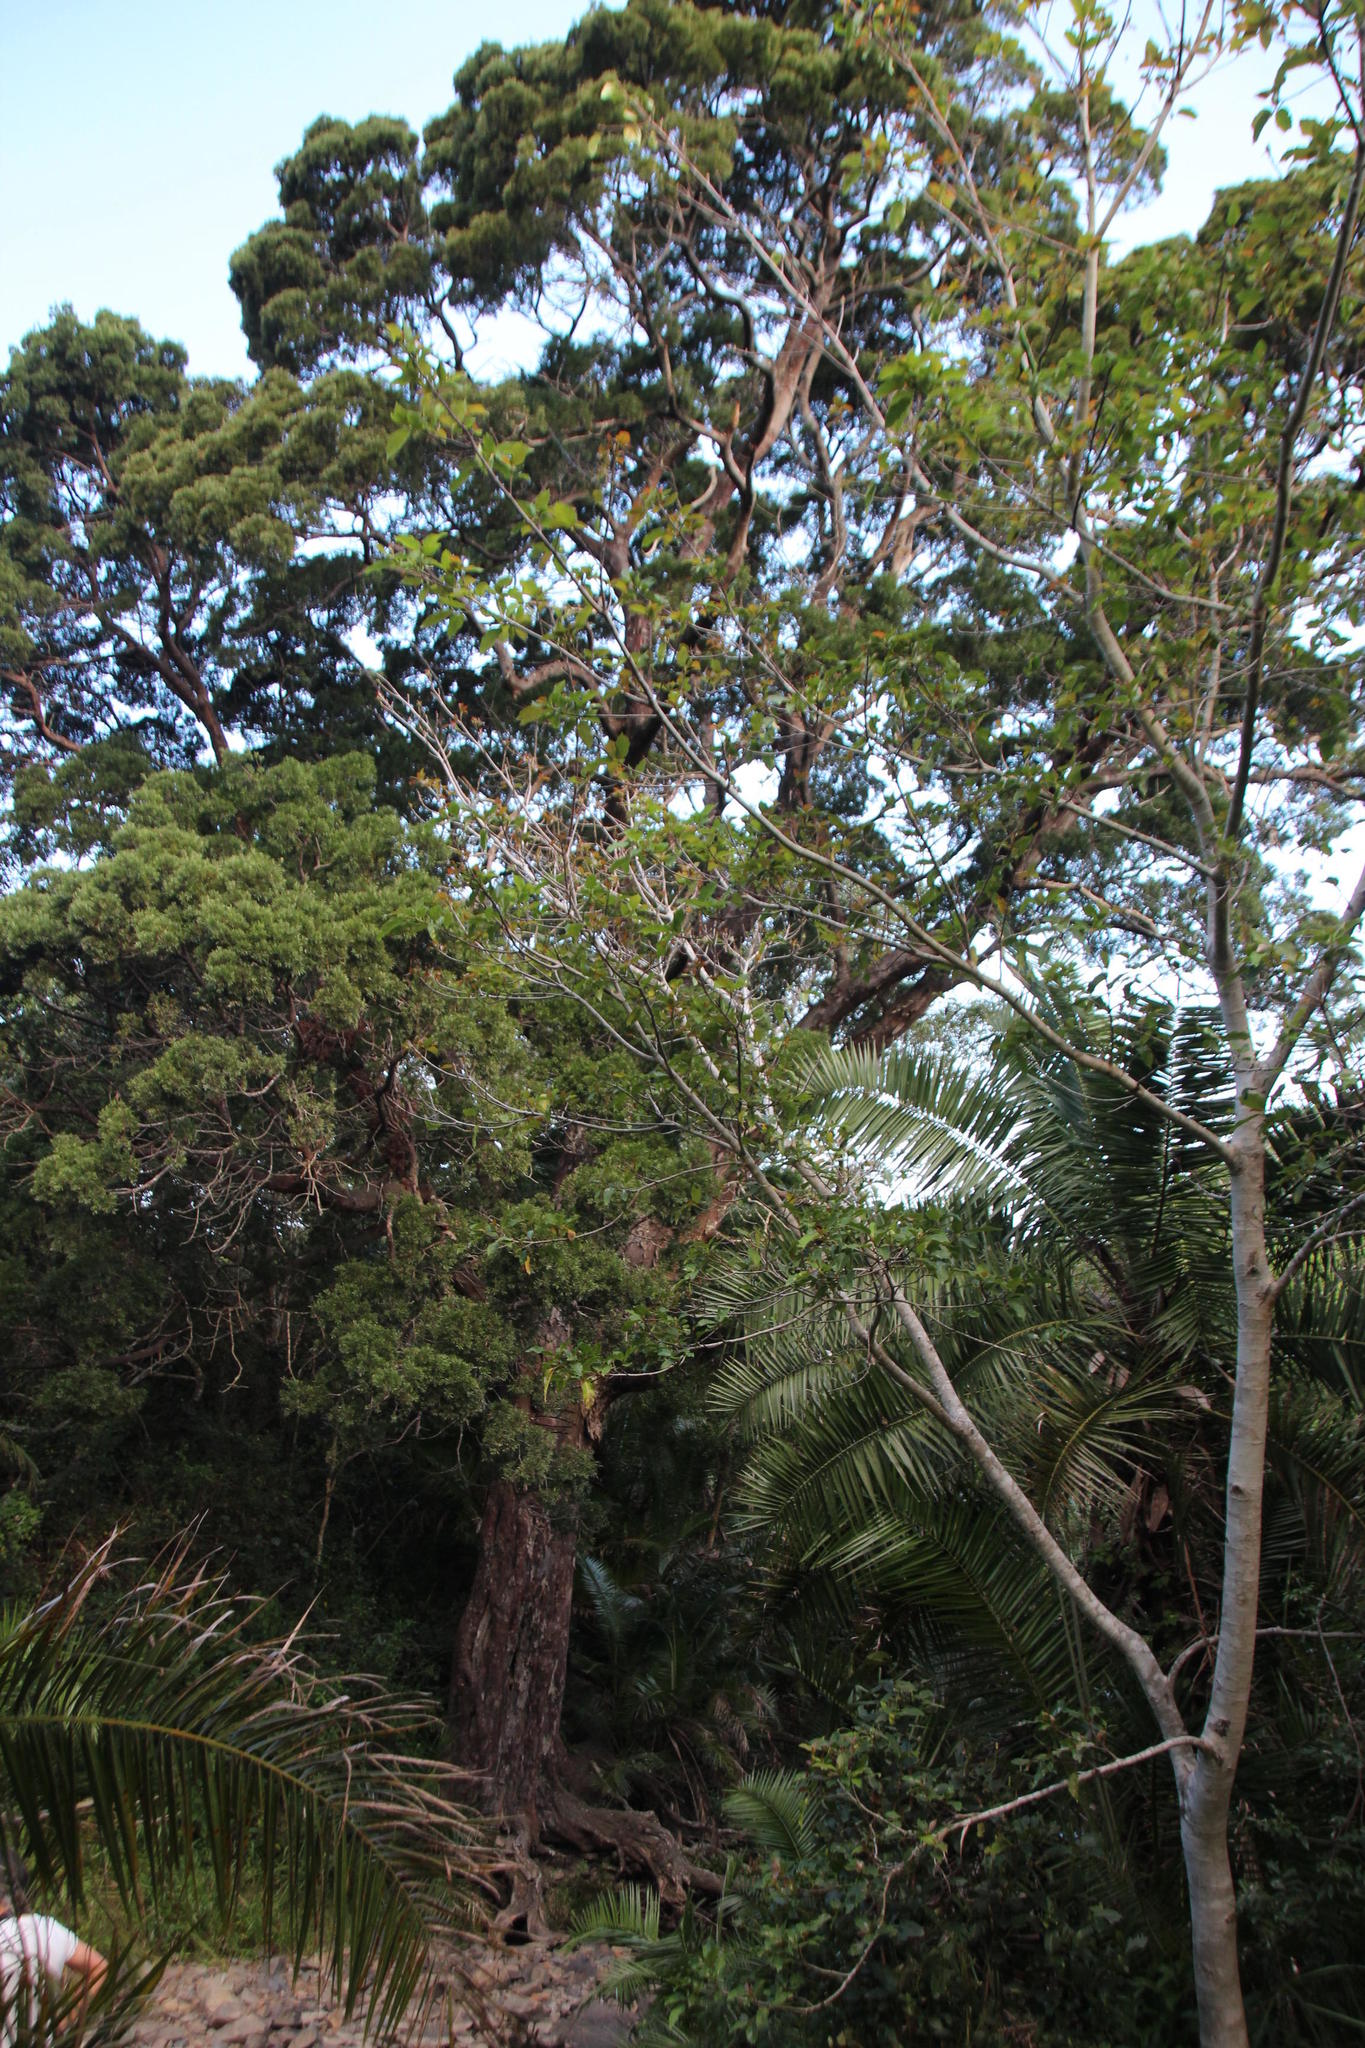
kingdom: Plantae
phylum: Tracheophyta
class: Pinopsida
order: Pinales
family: Podocarpaceae
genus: Afrocarpus
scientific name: Afrocarpus falcatus
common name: Bastard yellowwood
